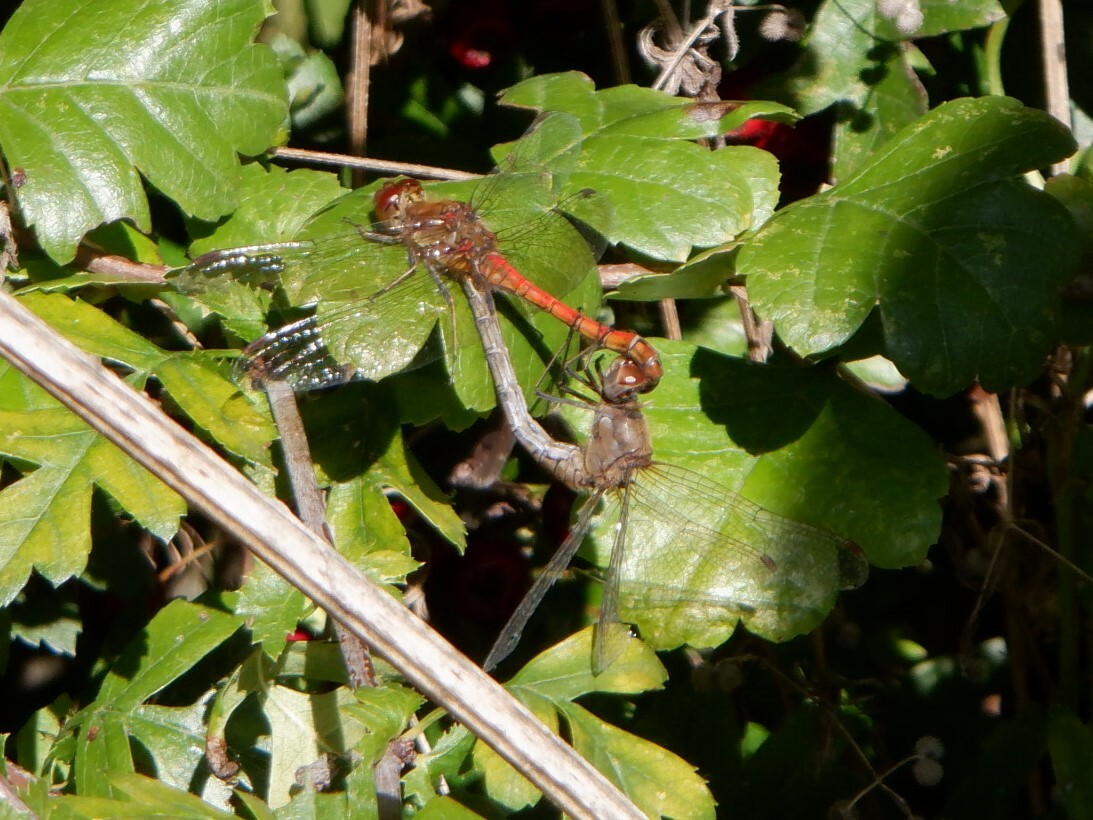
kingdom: Animalia
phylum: Arthropoda
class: Insecta
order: Odonata
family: Libellulidae
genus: Sympetrum
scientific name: Sympetrum striolatum
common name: Common darter
